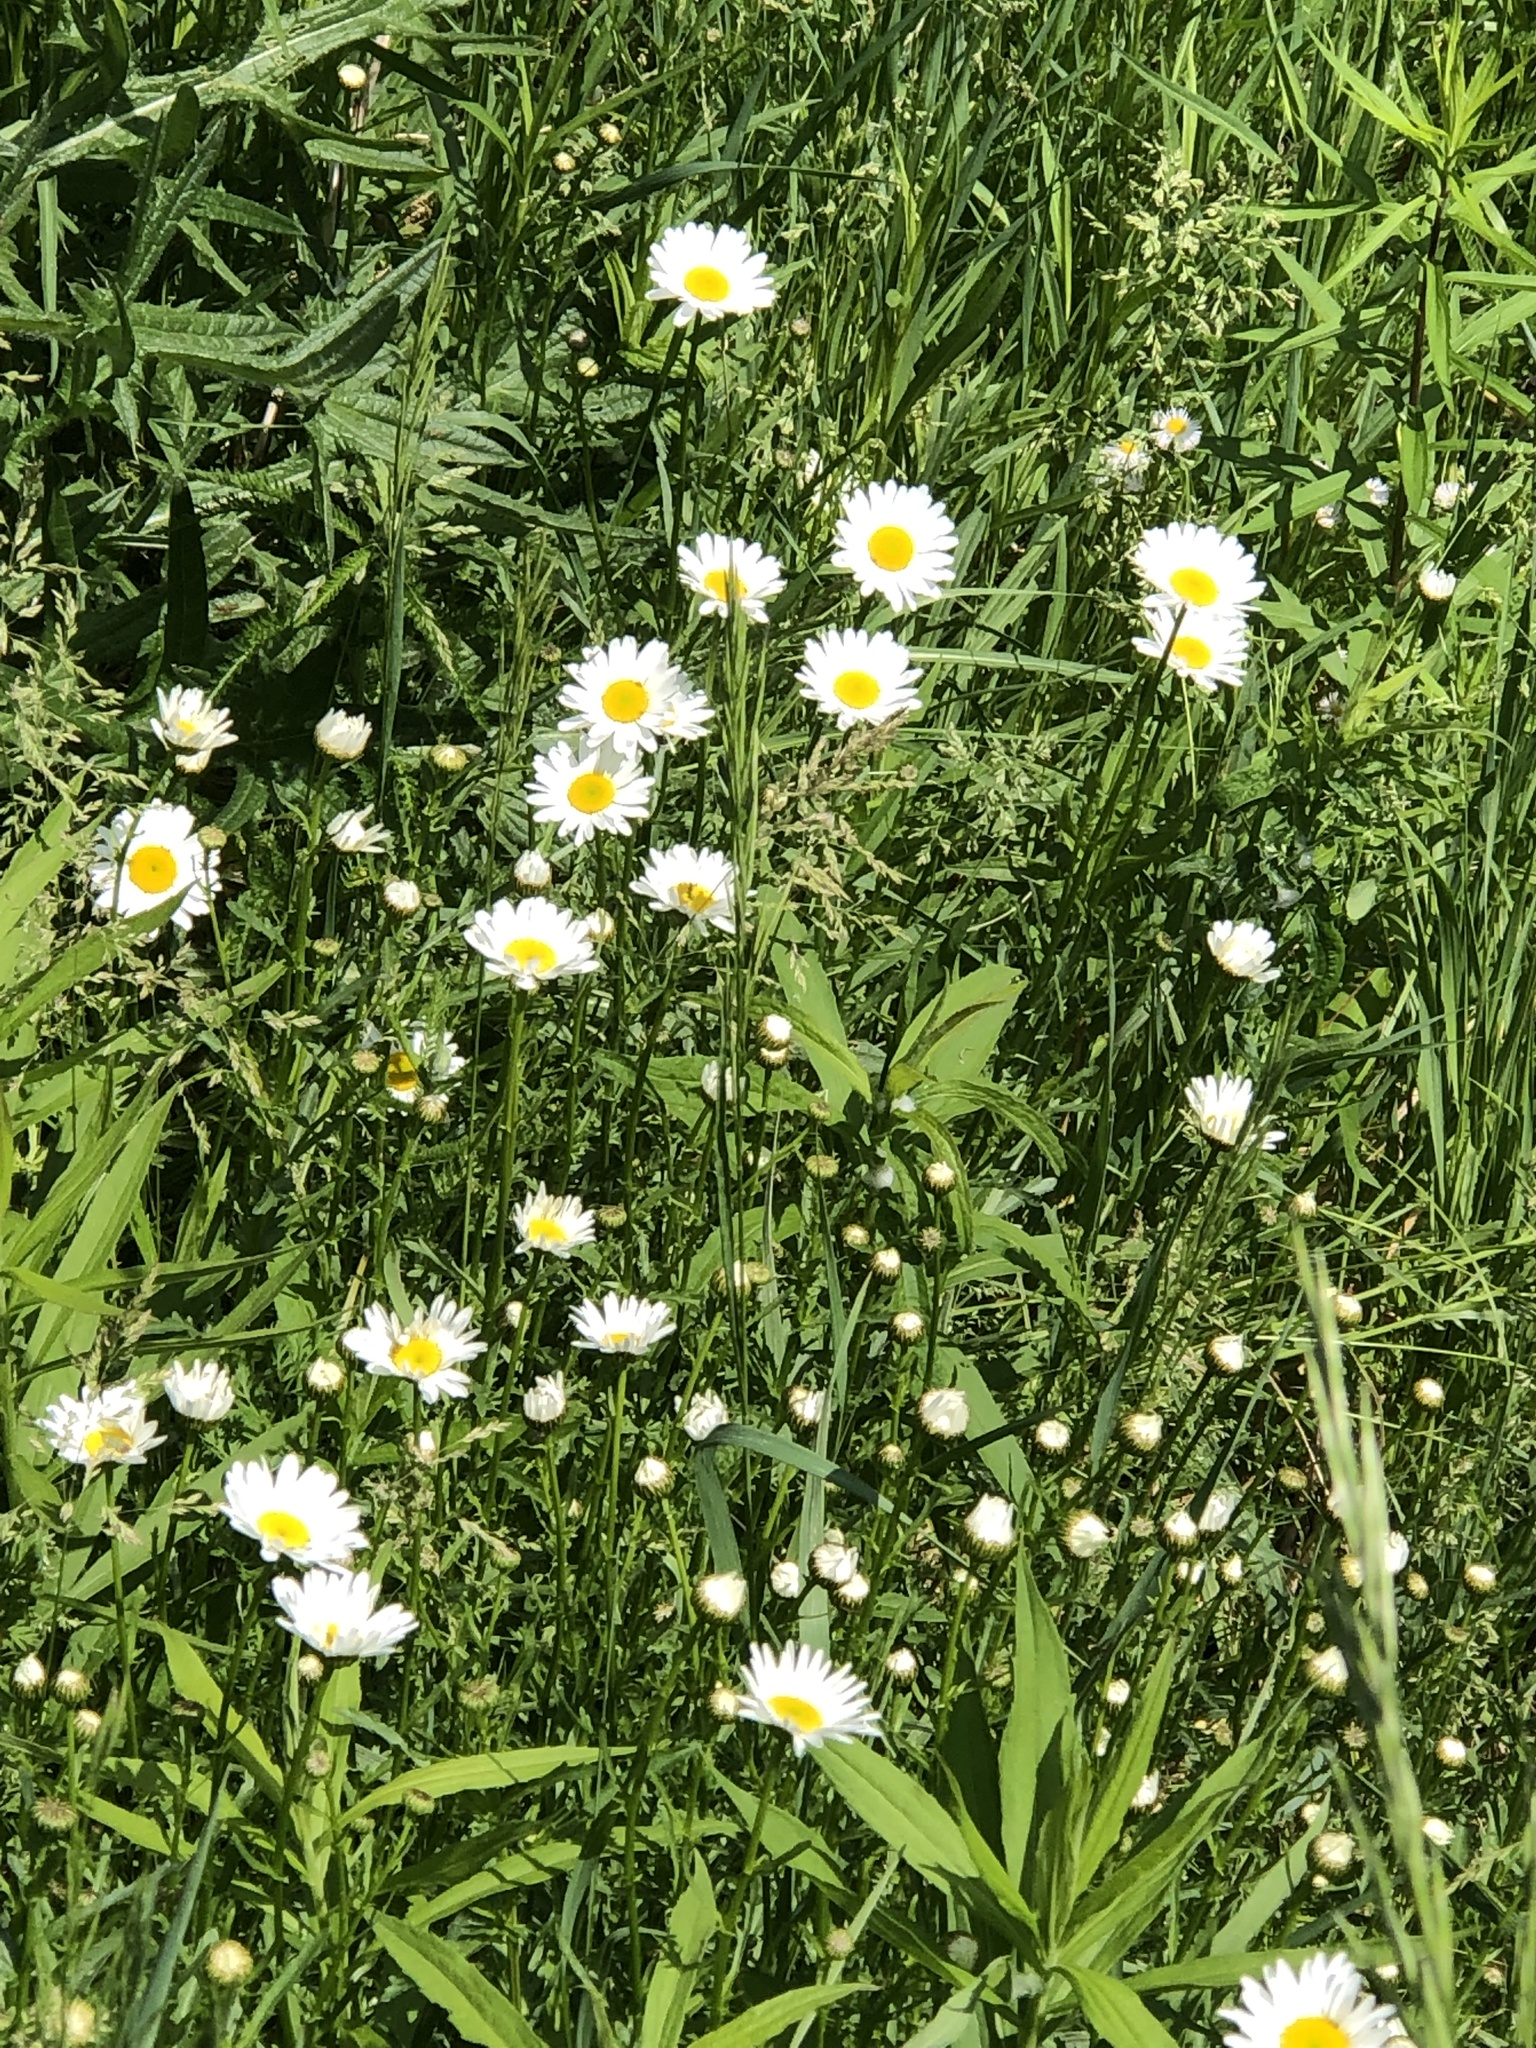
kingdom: Plantae
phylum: Tracheophyta
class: Magnoliopsida
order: Asterales
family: Asteraceae
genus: Leucanthemum
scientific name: Leucanthemum vulgare
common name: Oxeye daisy
